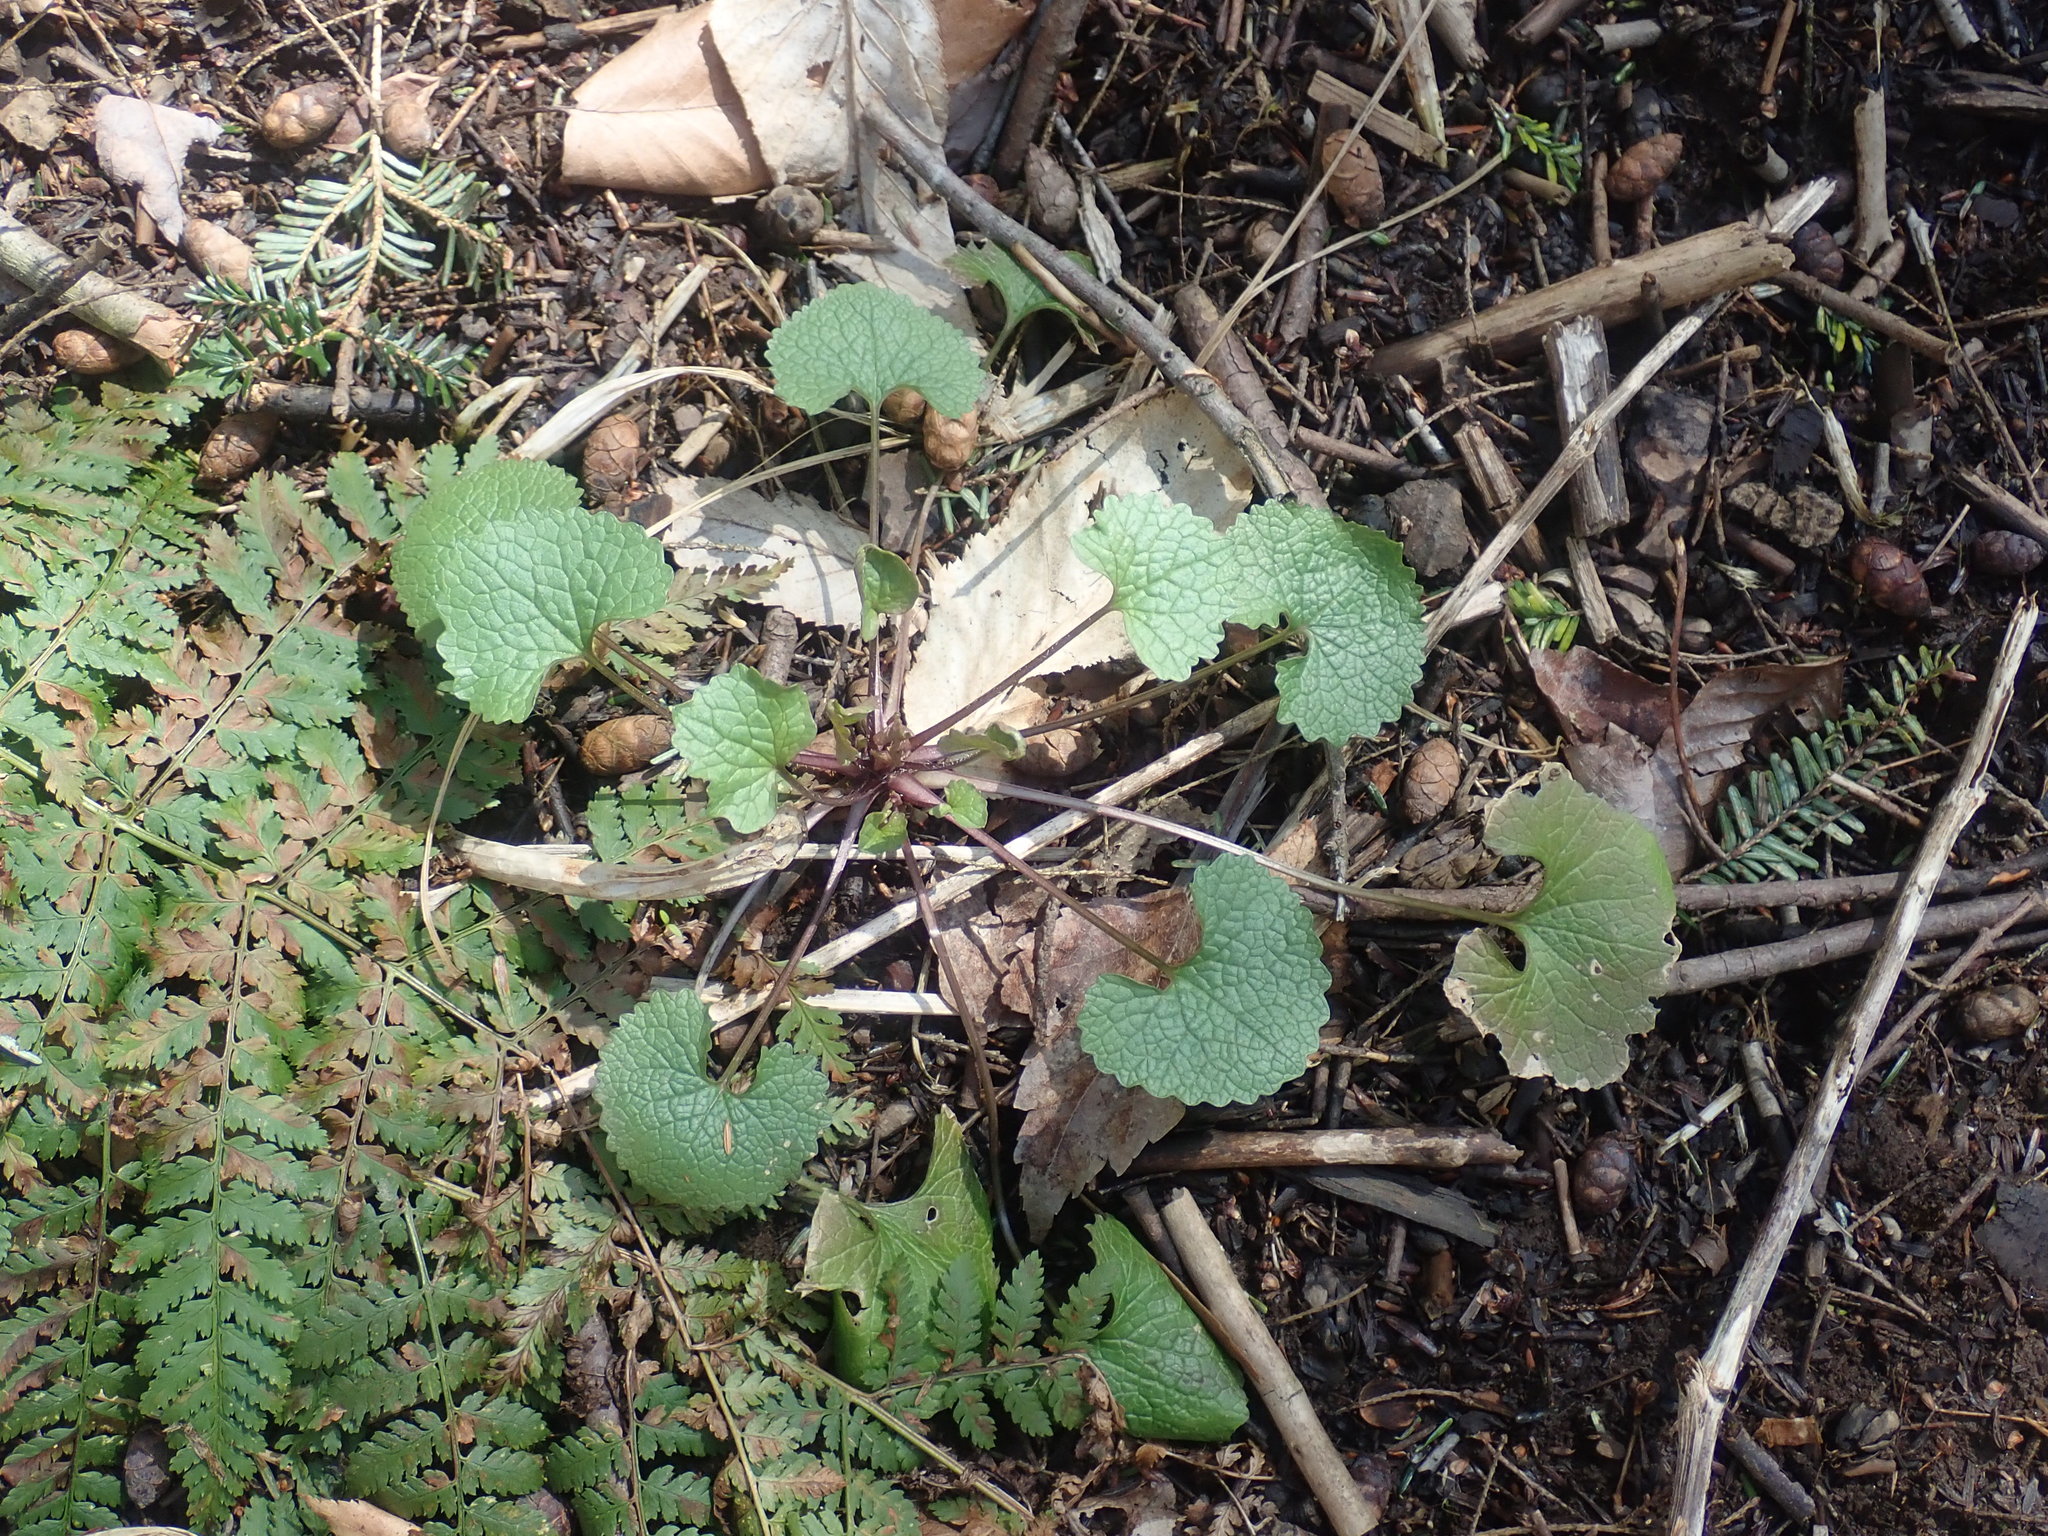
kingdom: Plantae
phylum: Tracheophyta
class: Magnoliopsida
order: Brassicales
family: Brassicaceae
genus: Alliaria
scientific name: Alliaria petiolata
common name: Garlic mustard
